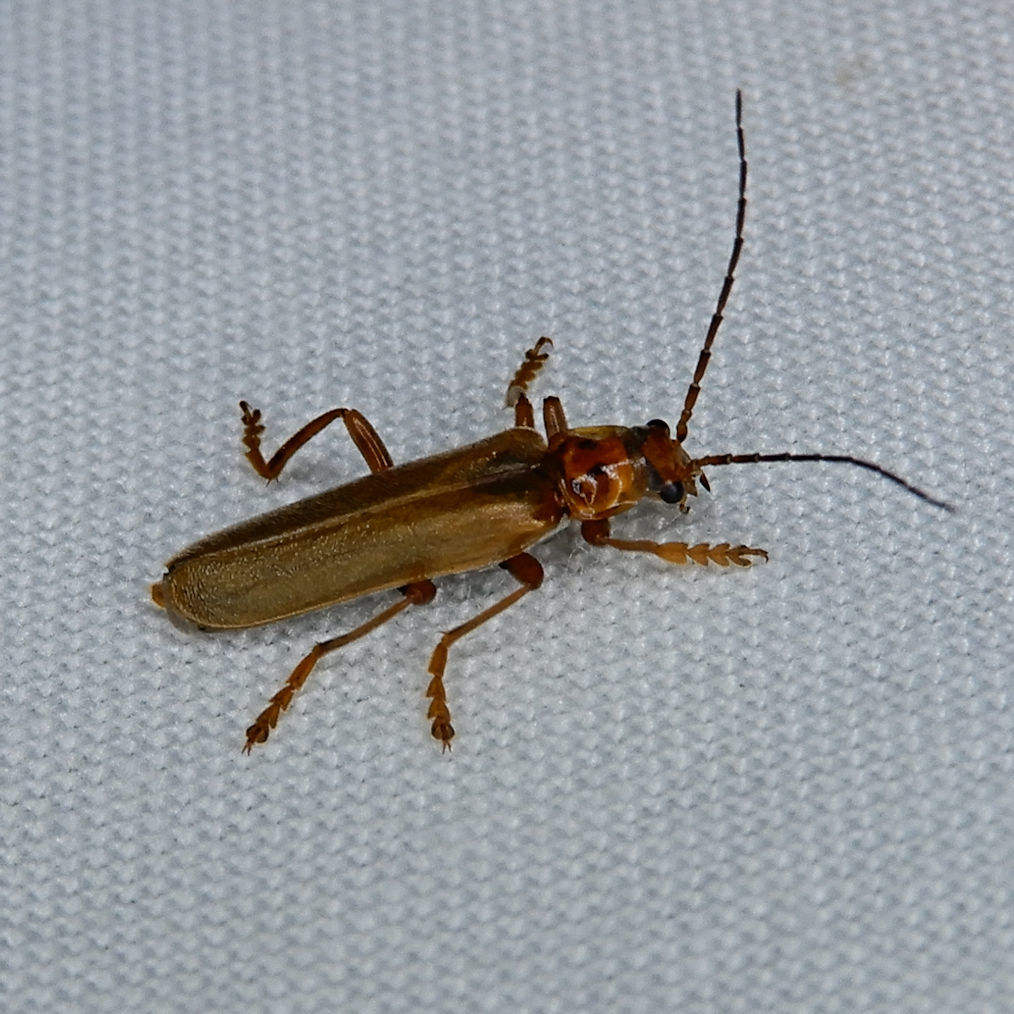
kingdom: Animalia
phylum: Arthropoda
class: Insecta
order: Coleoptera
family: Cantharidae
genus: Cantharis
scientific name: Cantharis rufa
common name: Red-spotted soldier beetle
